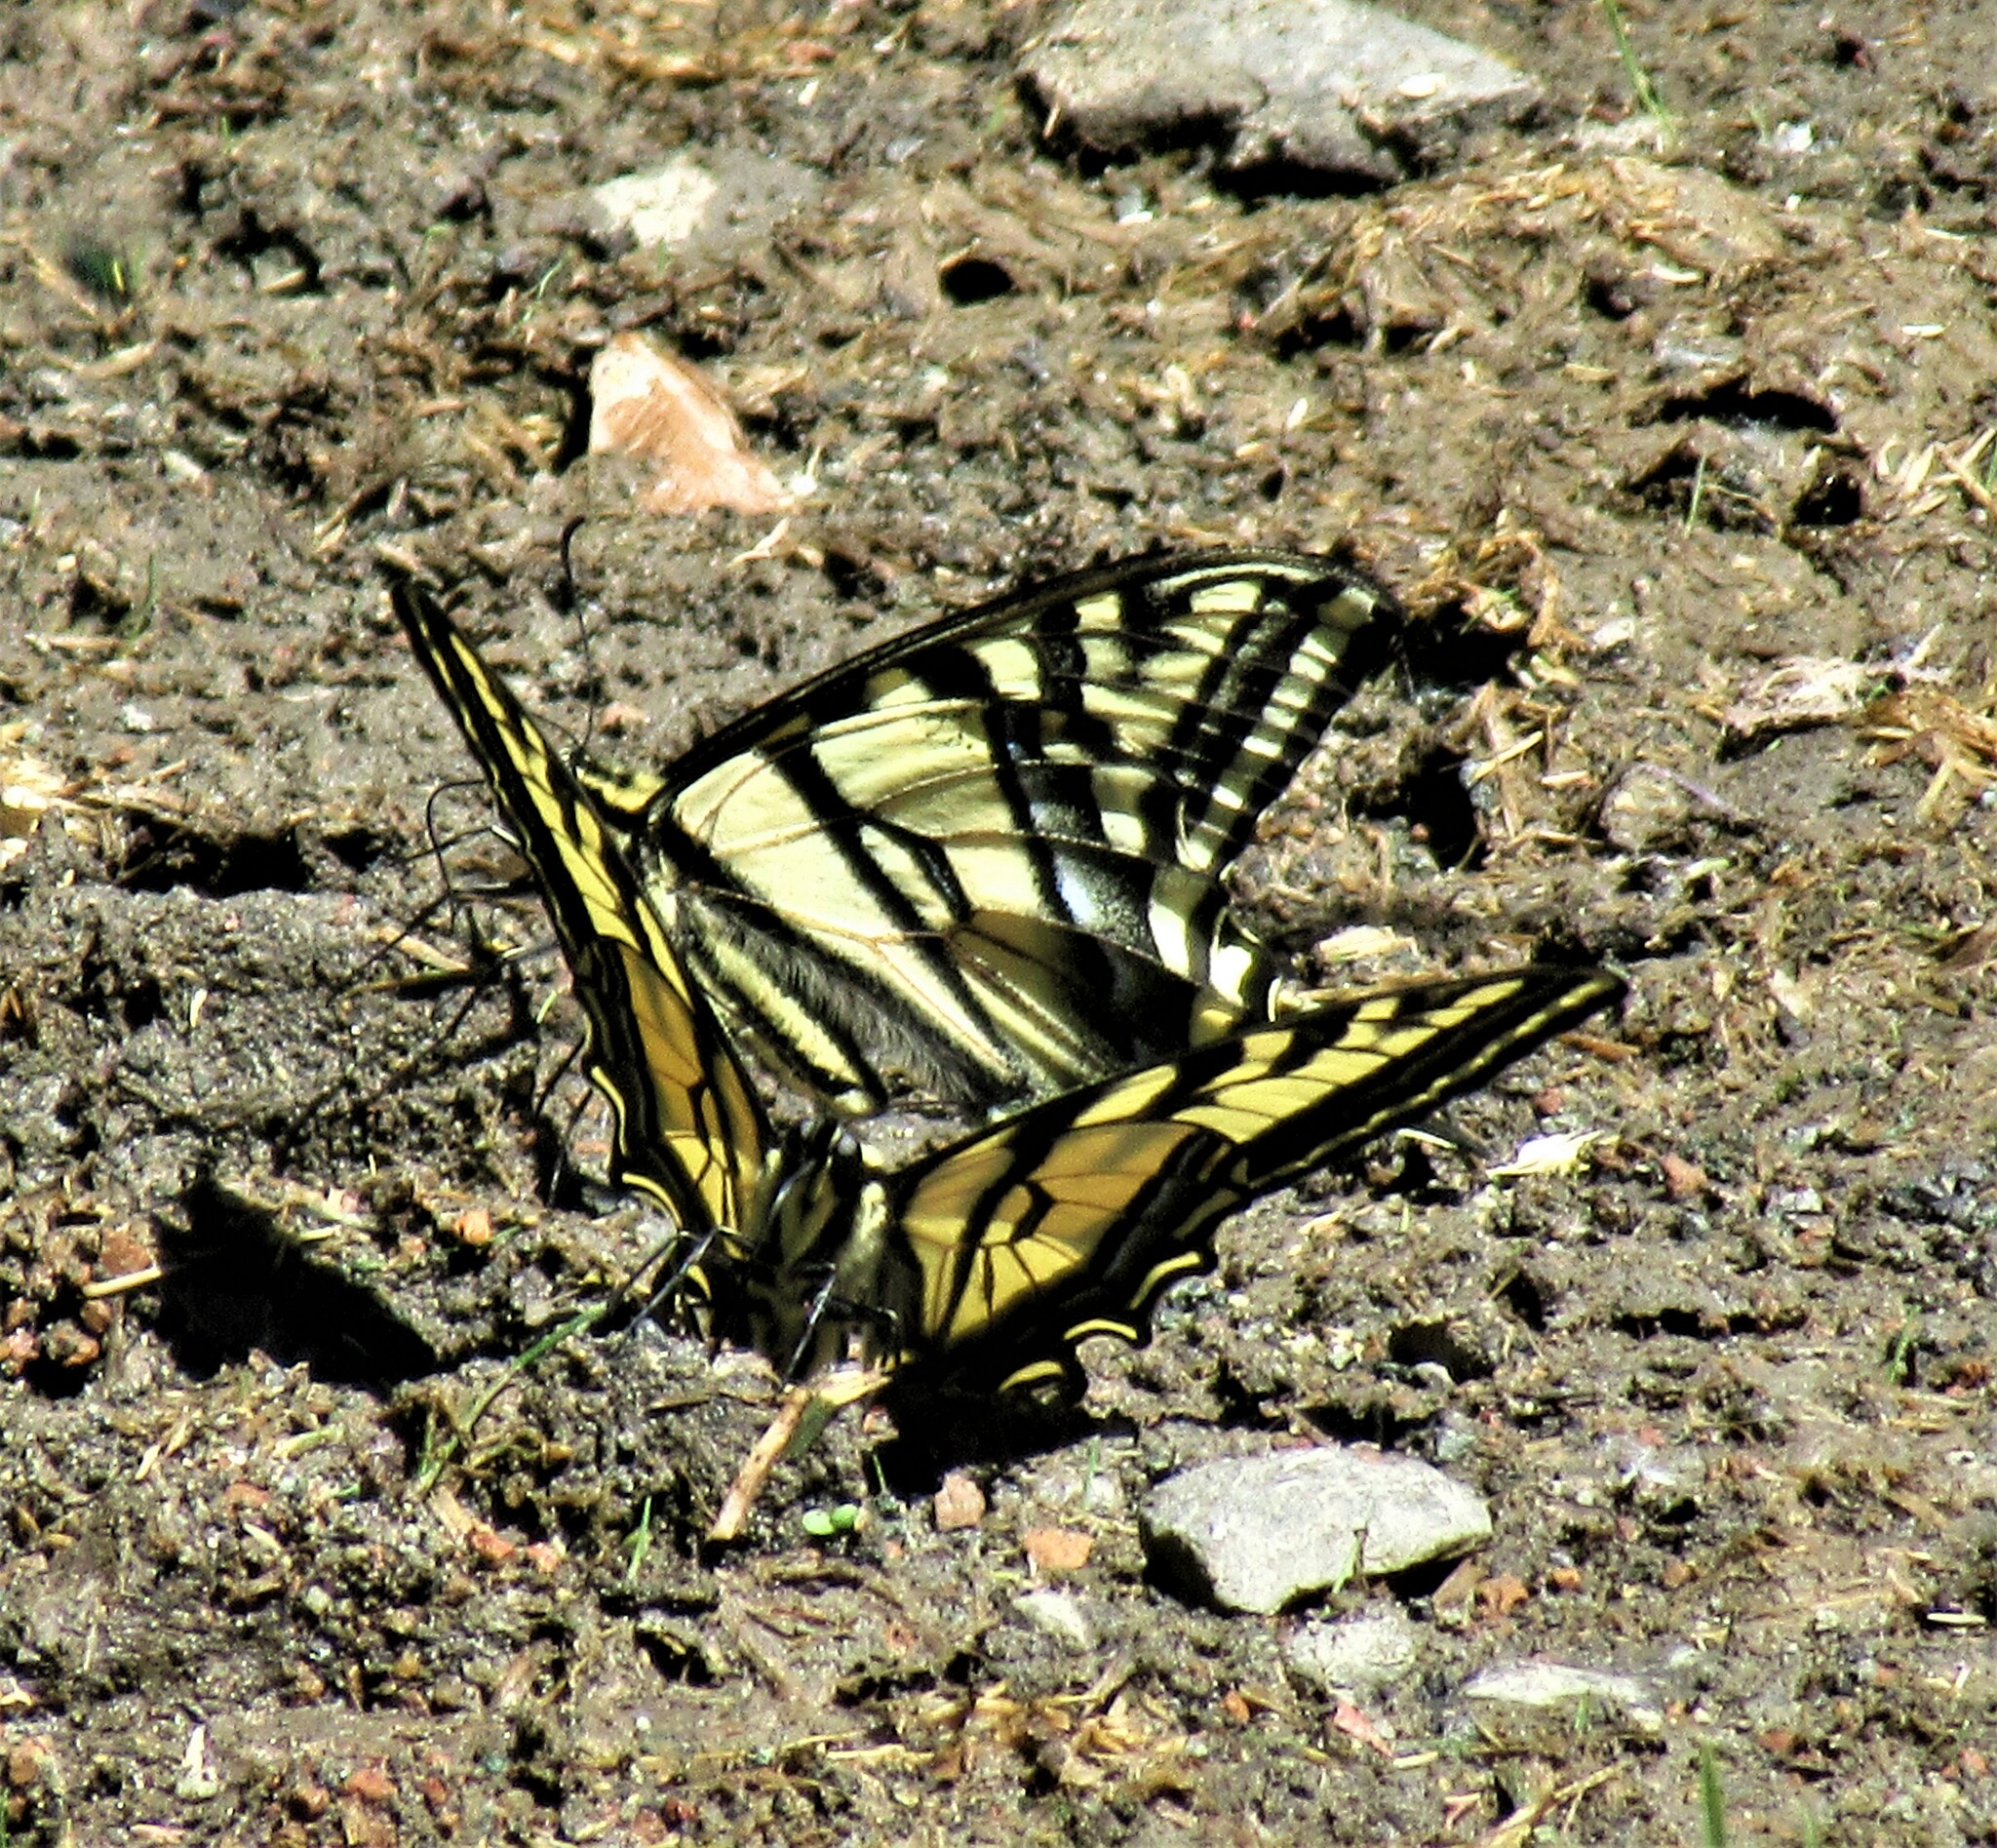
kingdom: Animalia
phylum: Arthropoda
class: Insecta
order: Lepidoptera
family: Papilionidae
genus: Papilio
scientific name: Papilio rutulus
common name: Western tiger swallowtail
